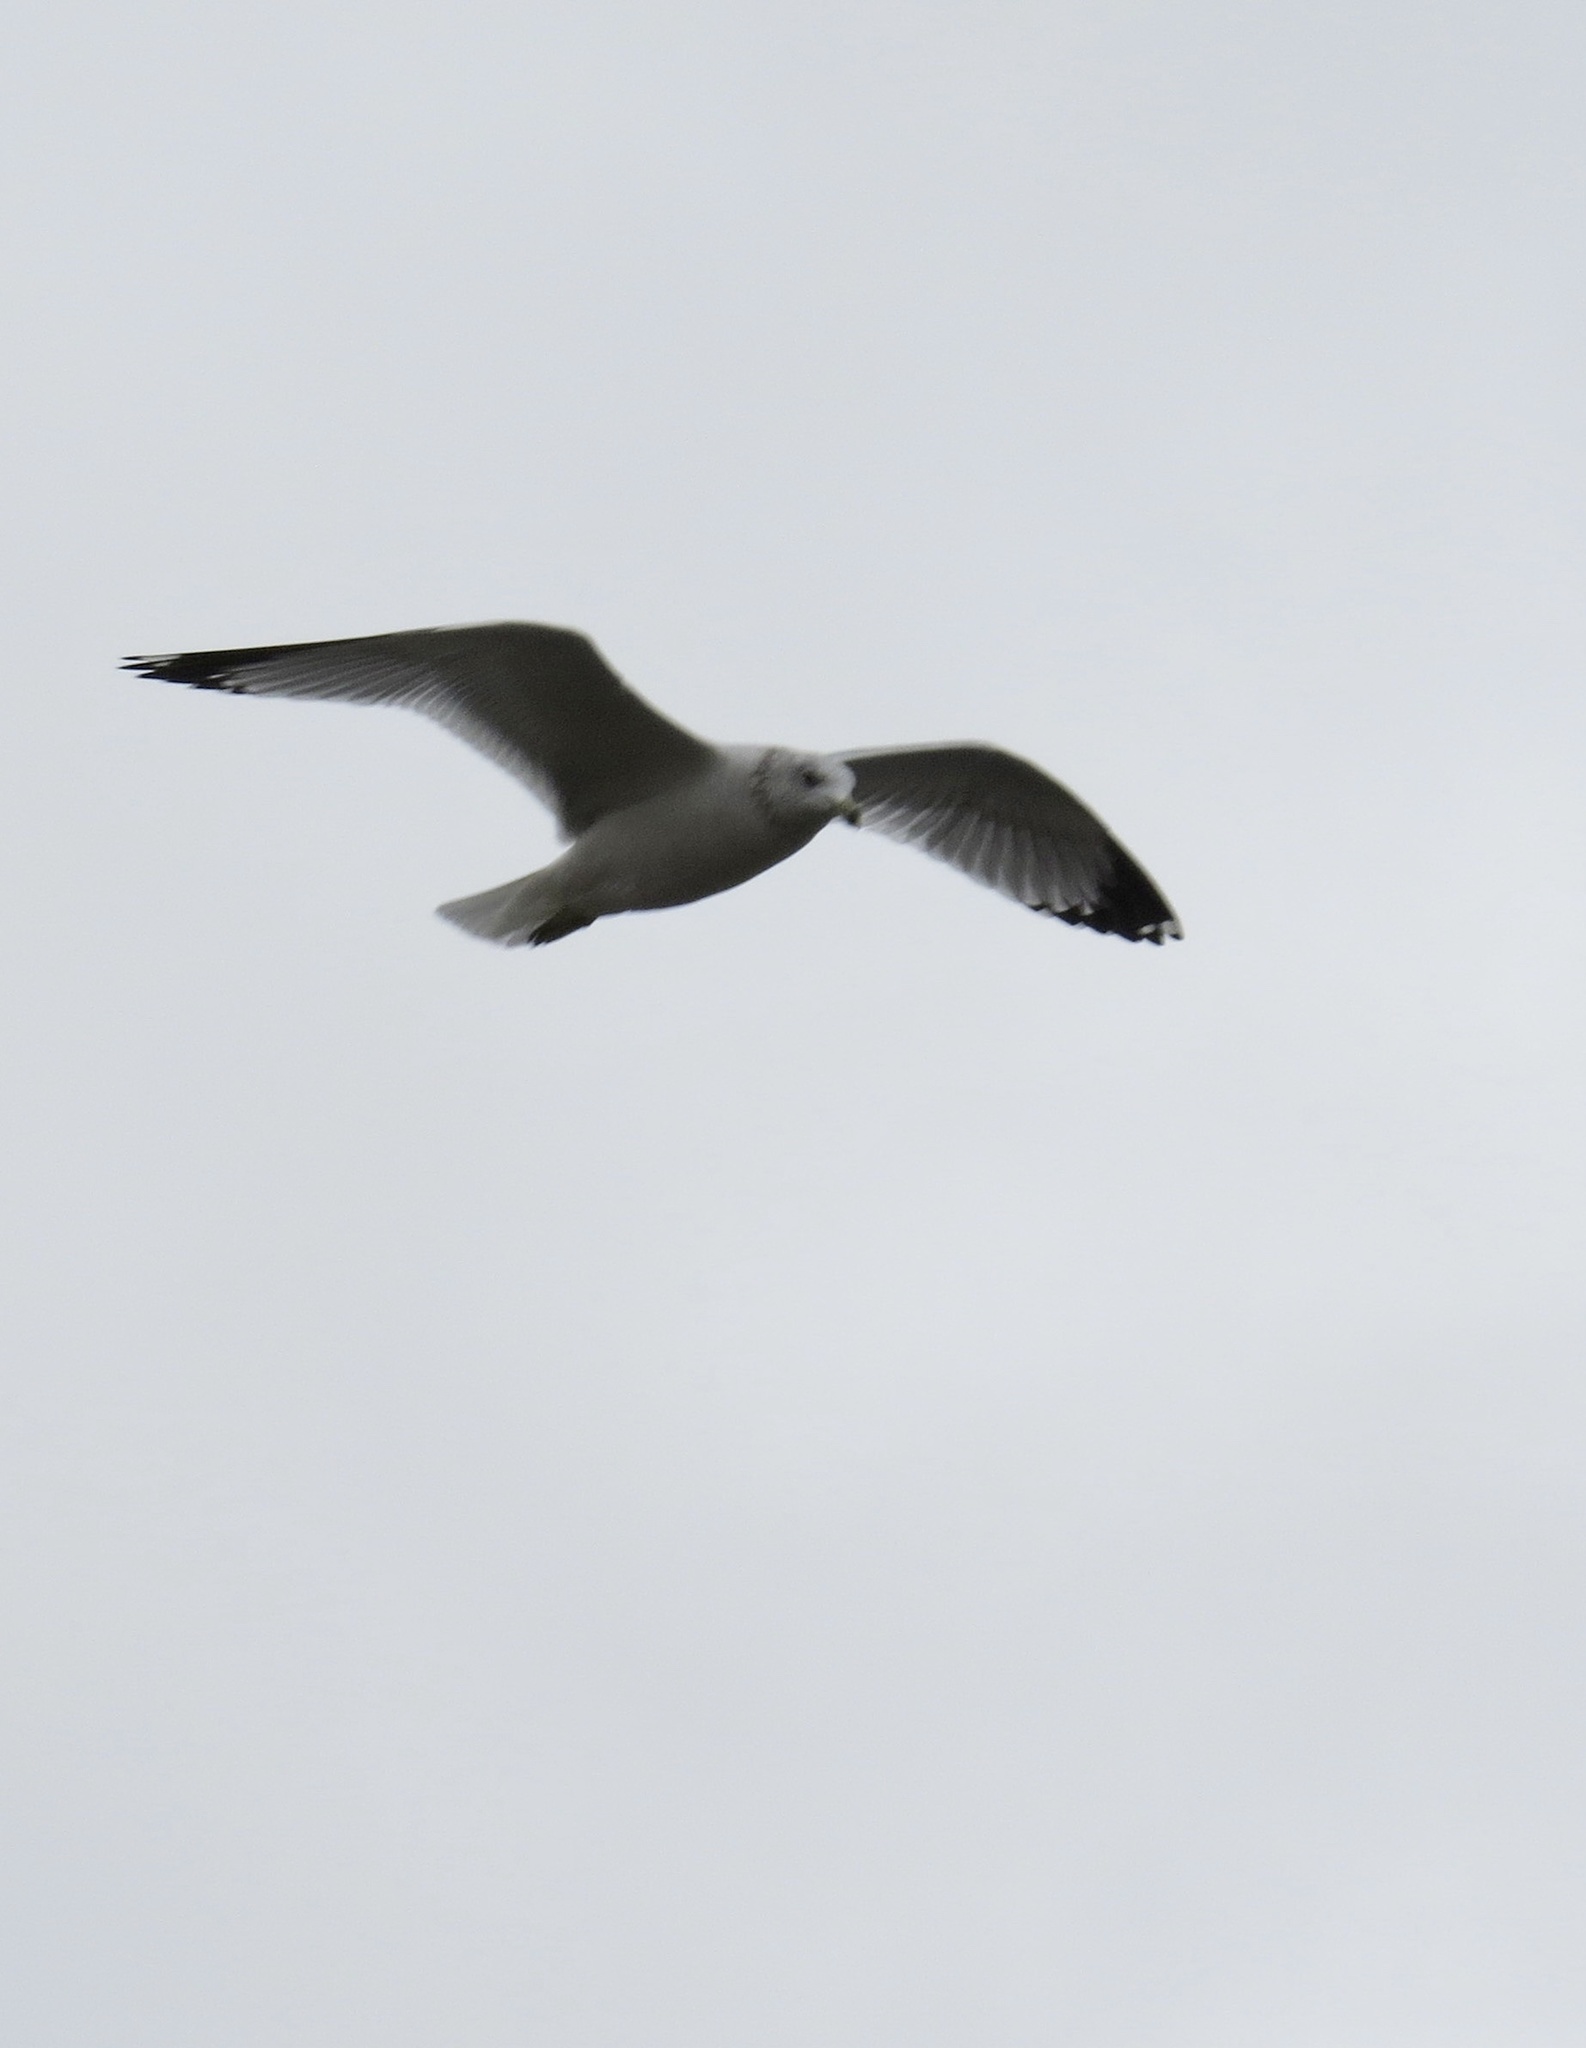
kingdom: Animalia
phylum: Chordata
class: Aves
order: Charadriiformes
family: Laridae
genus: Larus
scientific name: Larus delawarensis
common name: Ring-billed gull
